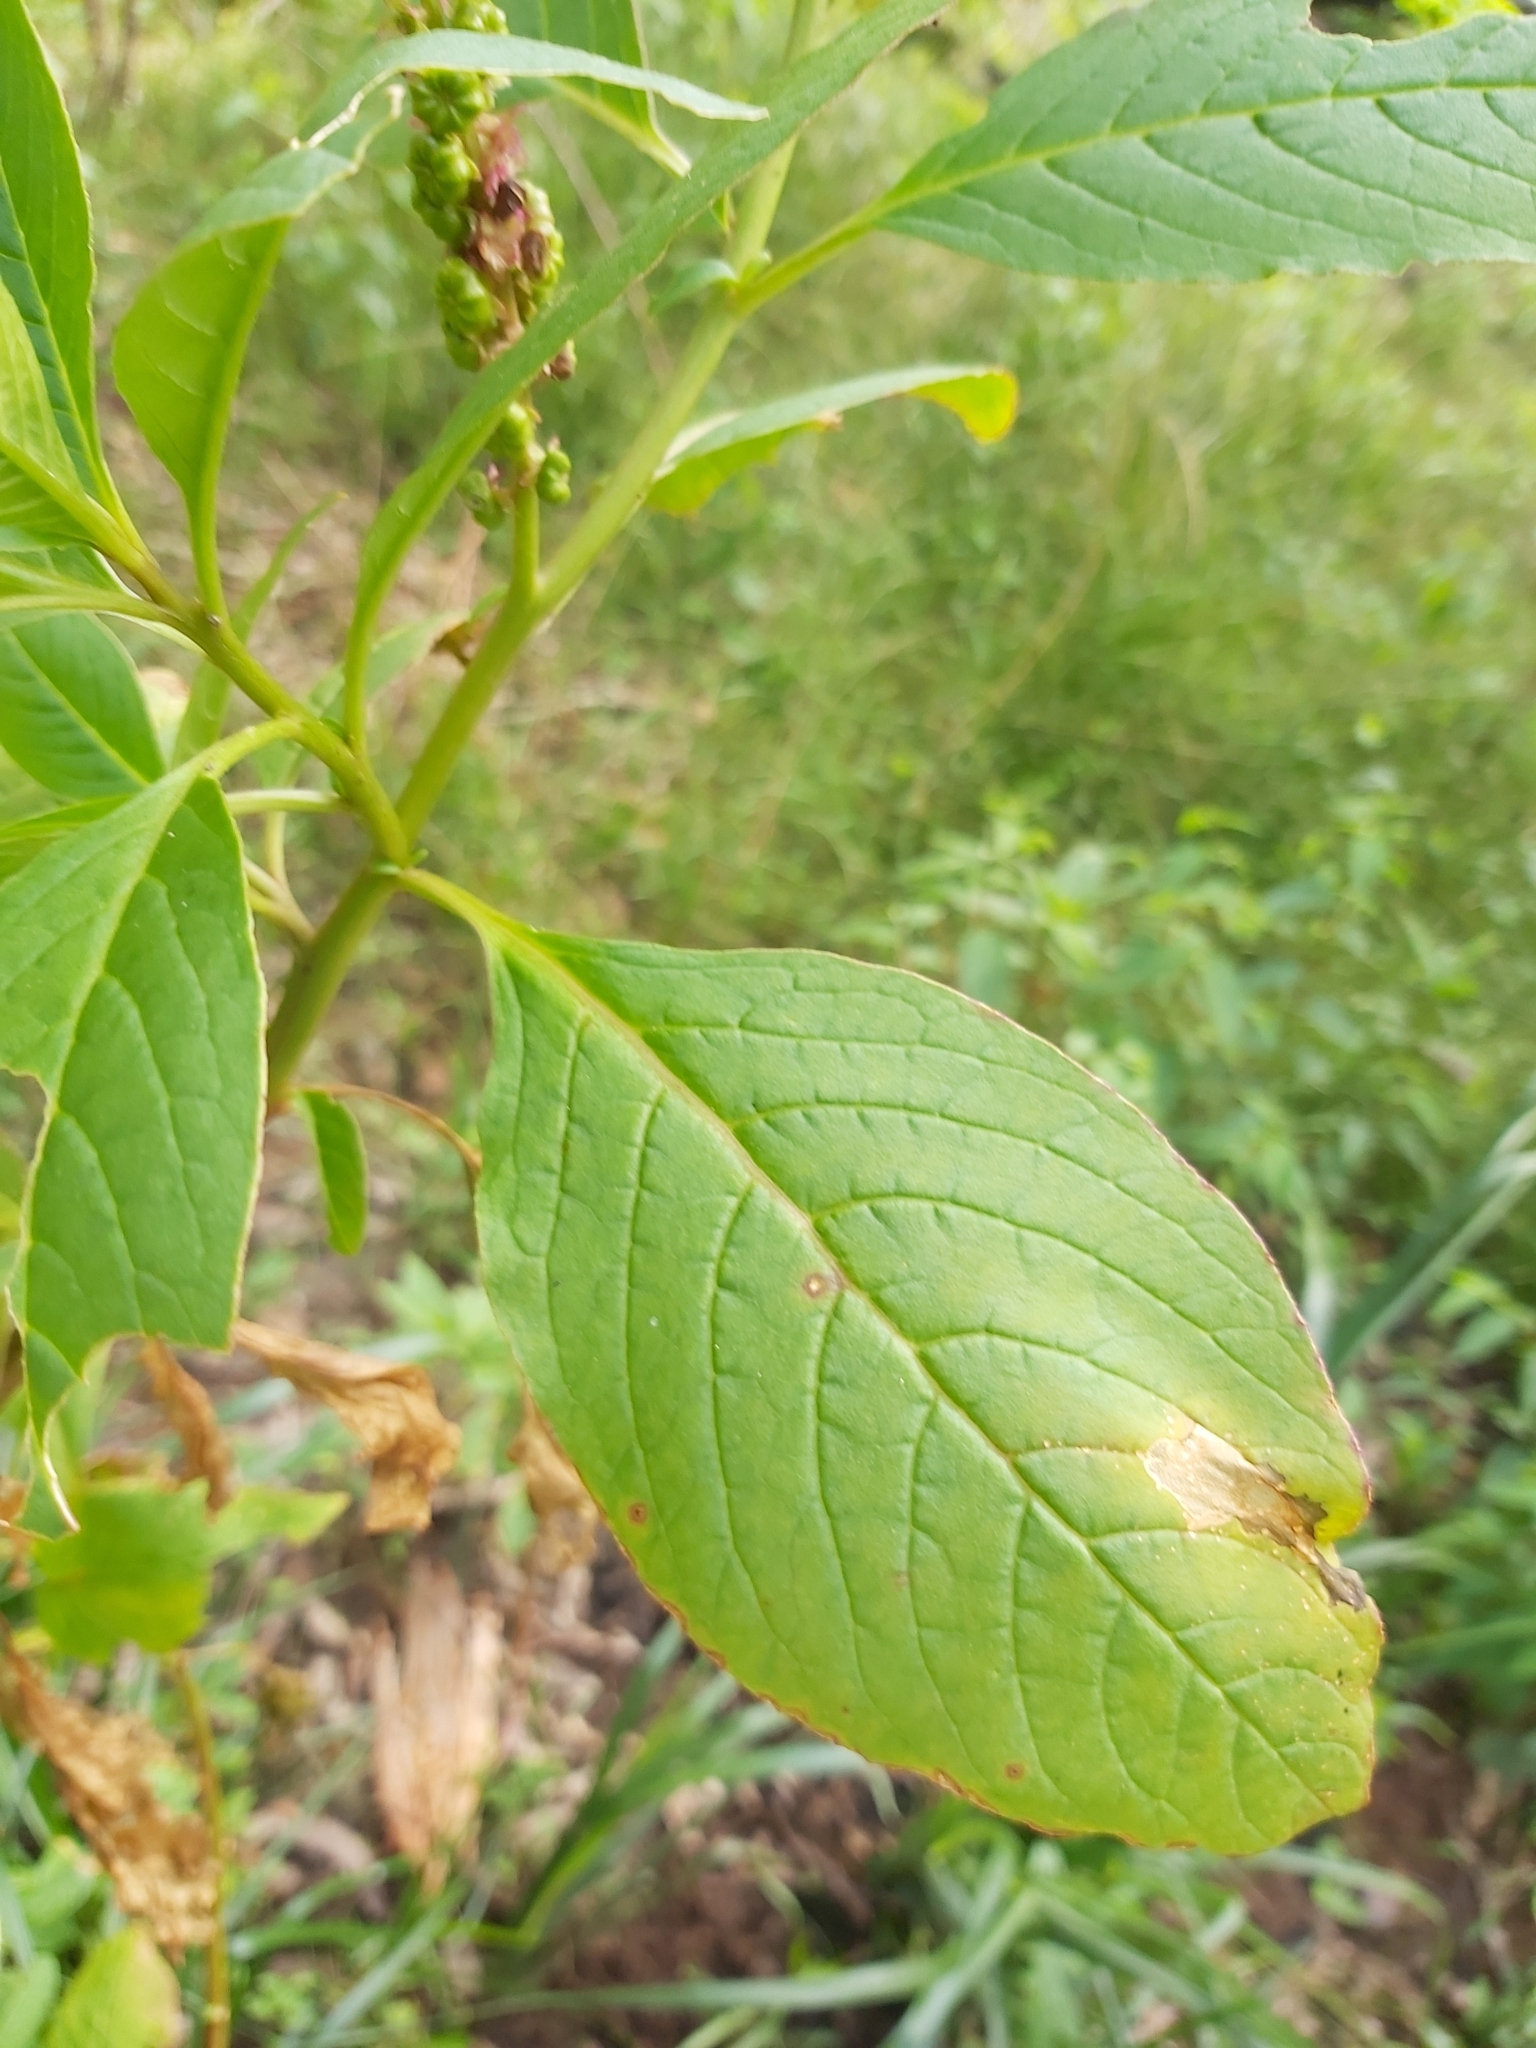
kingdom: Plantae
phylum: Tracheophyta
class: Magnoliopsida
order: Caryophyllales
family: Phytolaccaceae
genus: Phytolacca
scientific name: Phytolacca icosandra
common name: Button pokeweed
